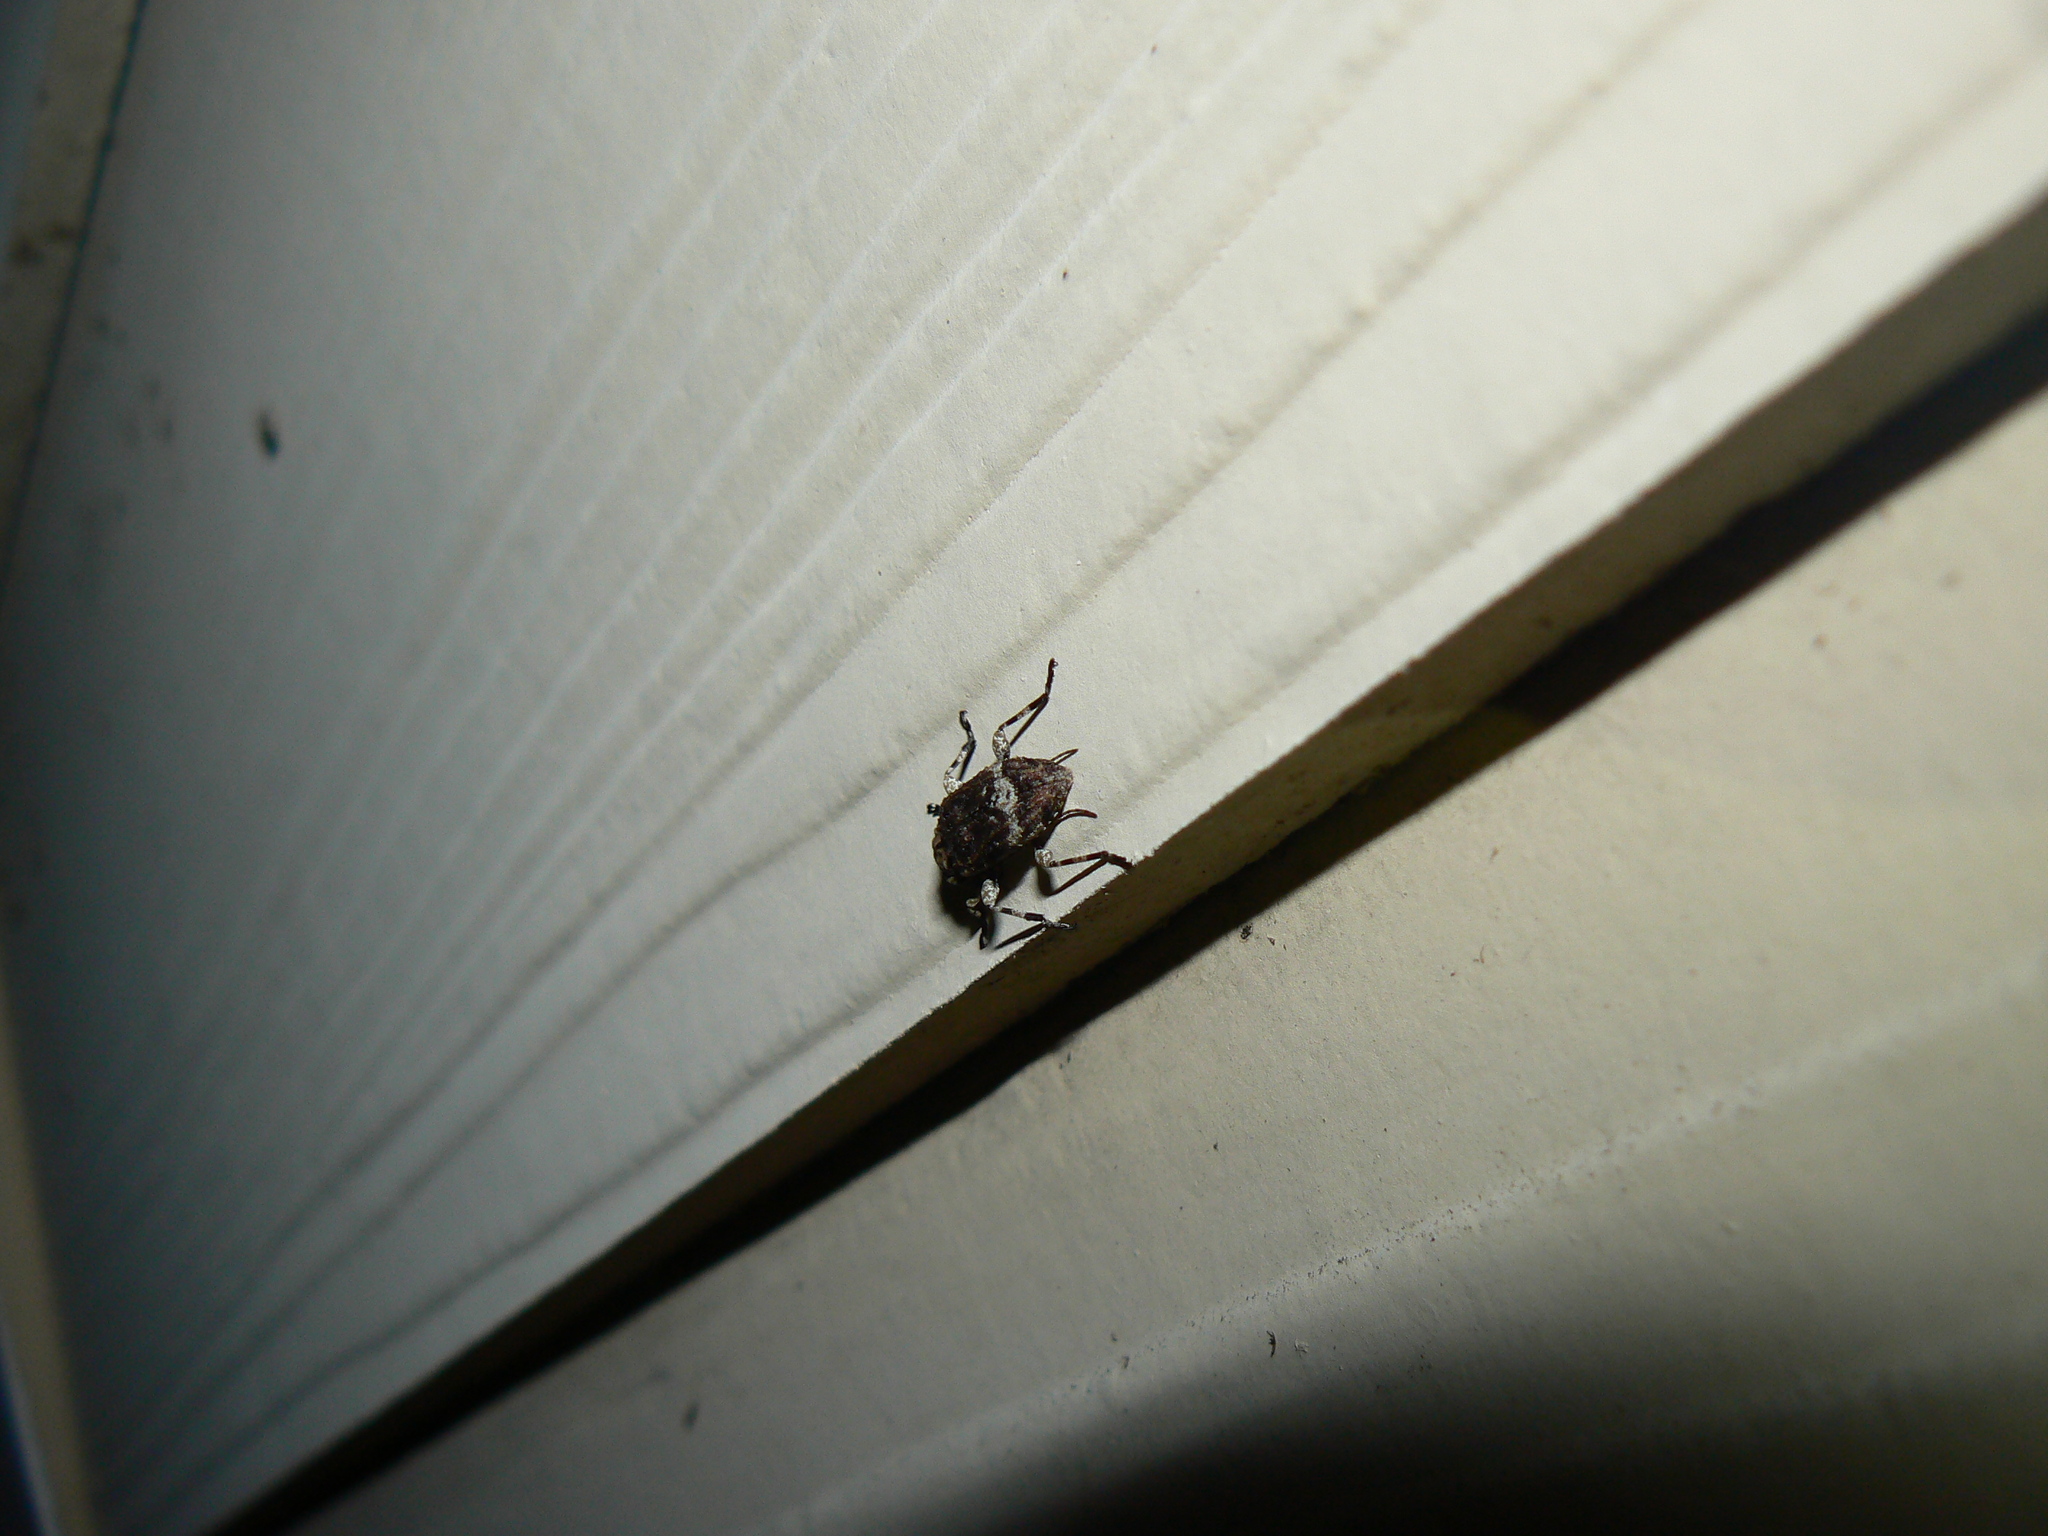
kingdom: Animalia
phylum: Arthropoda
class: Insecta
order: Coleoptera
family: Cerambycidae
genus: Leptostylus
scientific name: Leptostylus transversus
